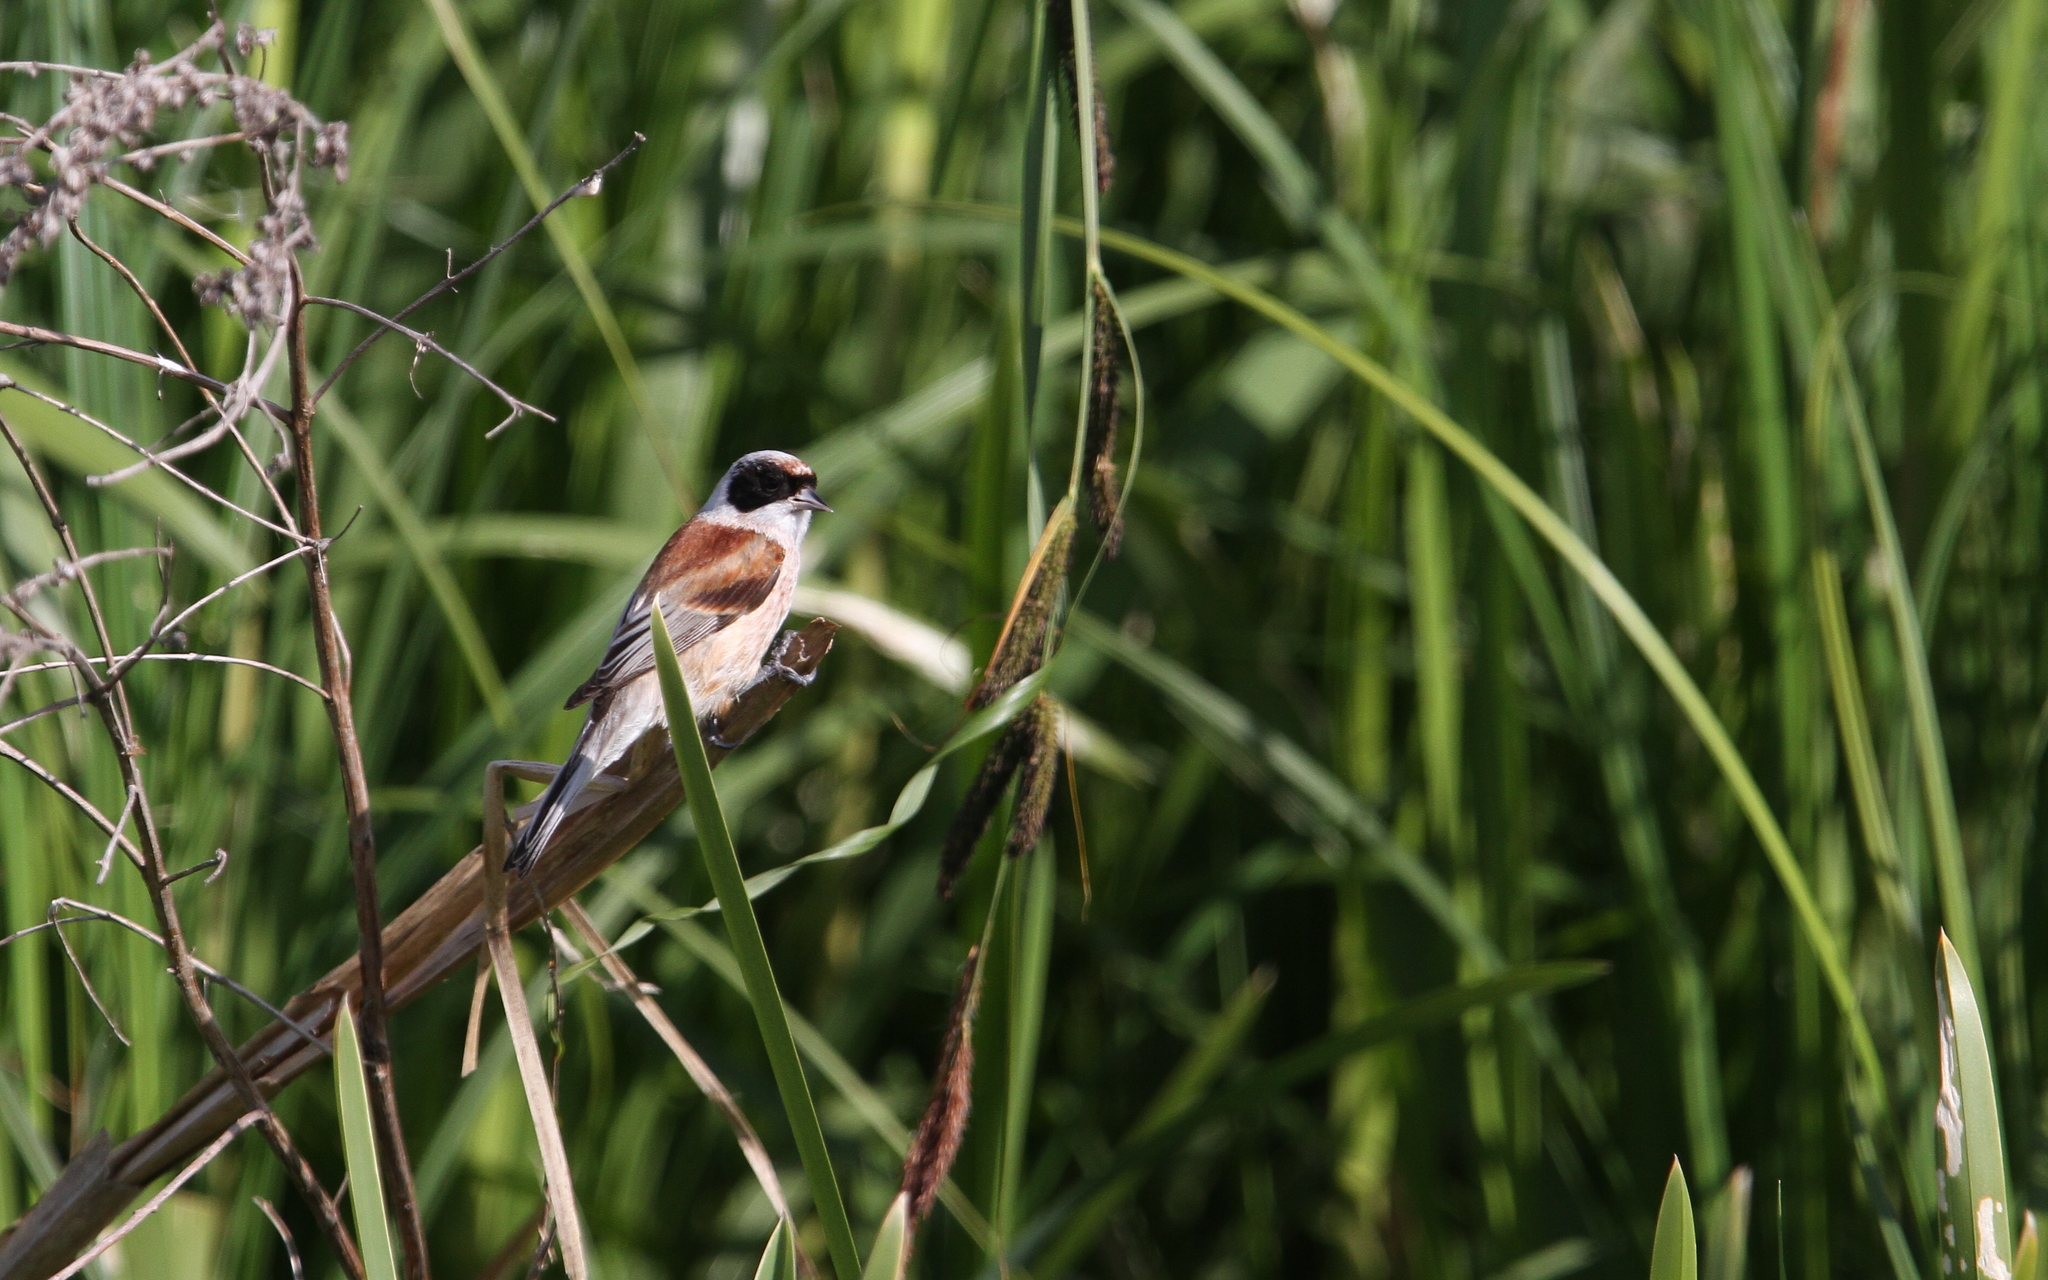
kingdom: Animalia
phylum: Chordata
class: Aves
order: Passeriformes
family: Remizidae
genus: Remiz
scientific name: Remiz pendulinus
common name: Eurasian penduline tit
